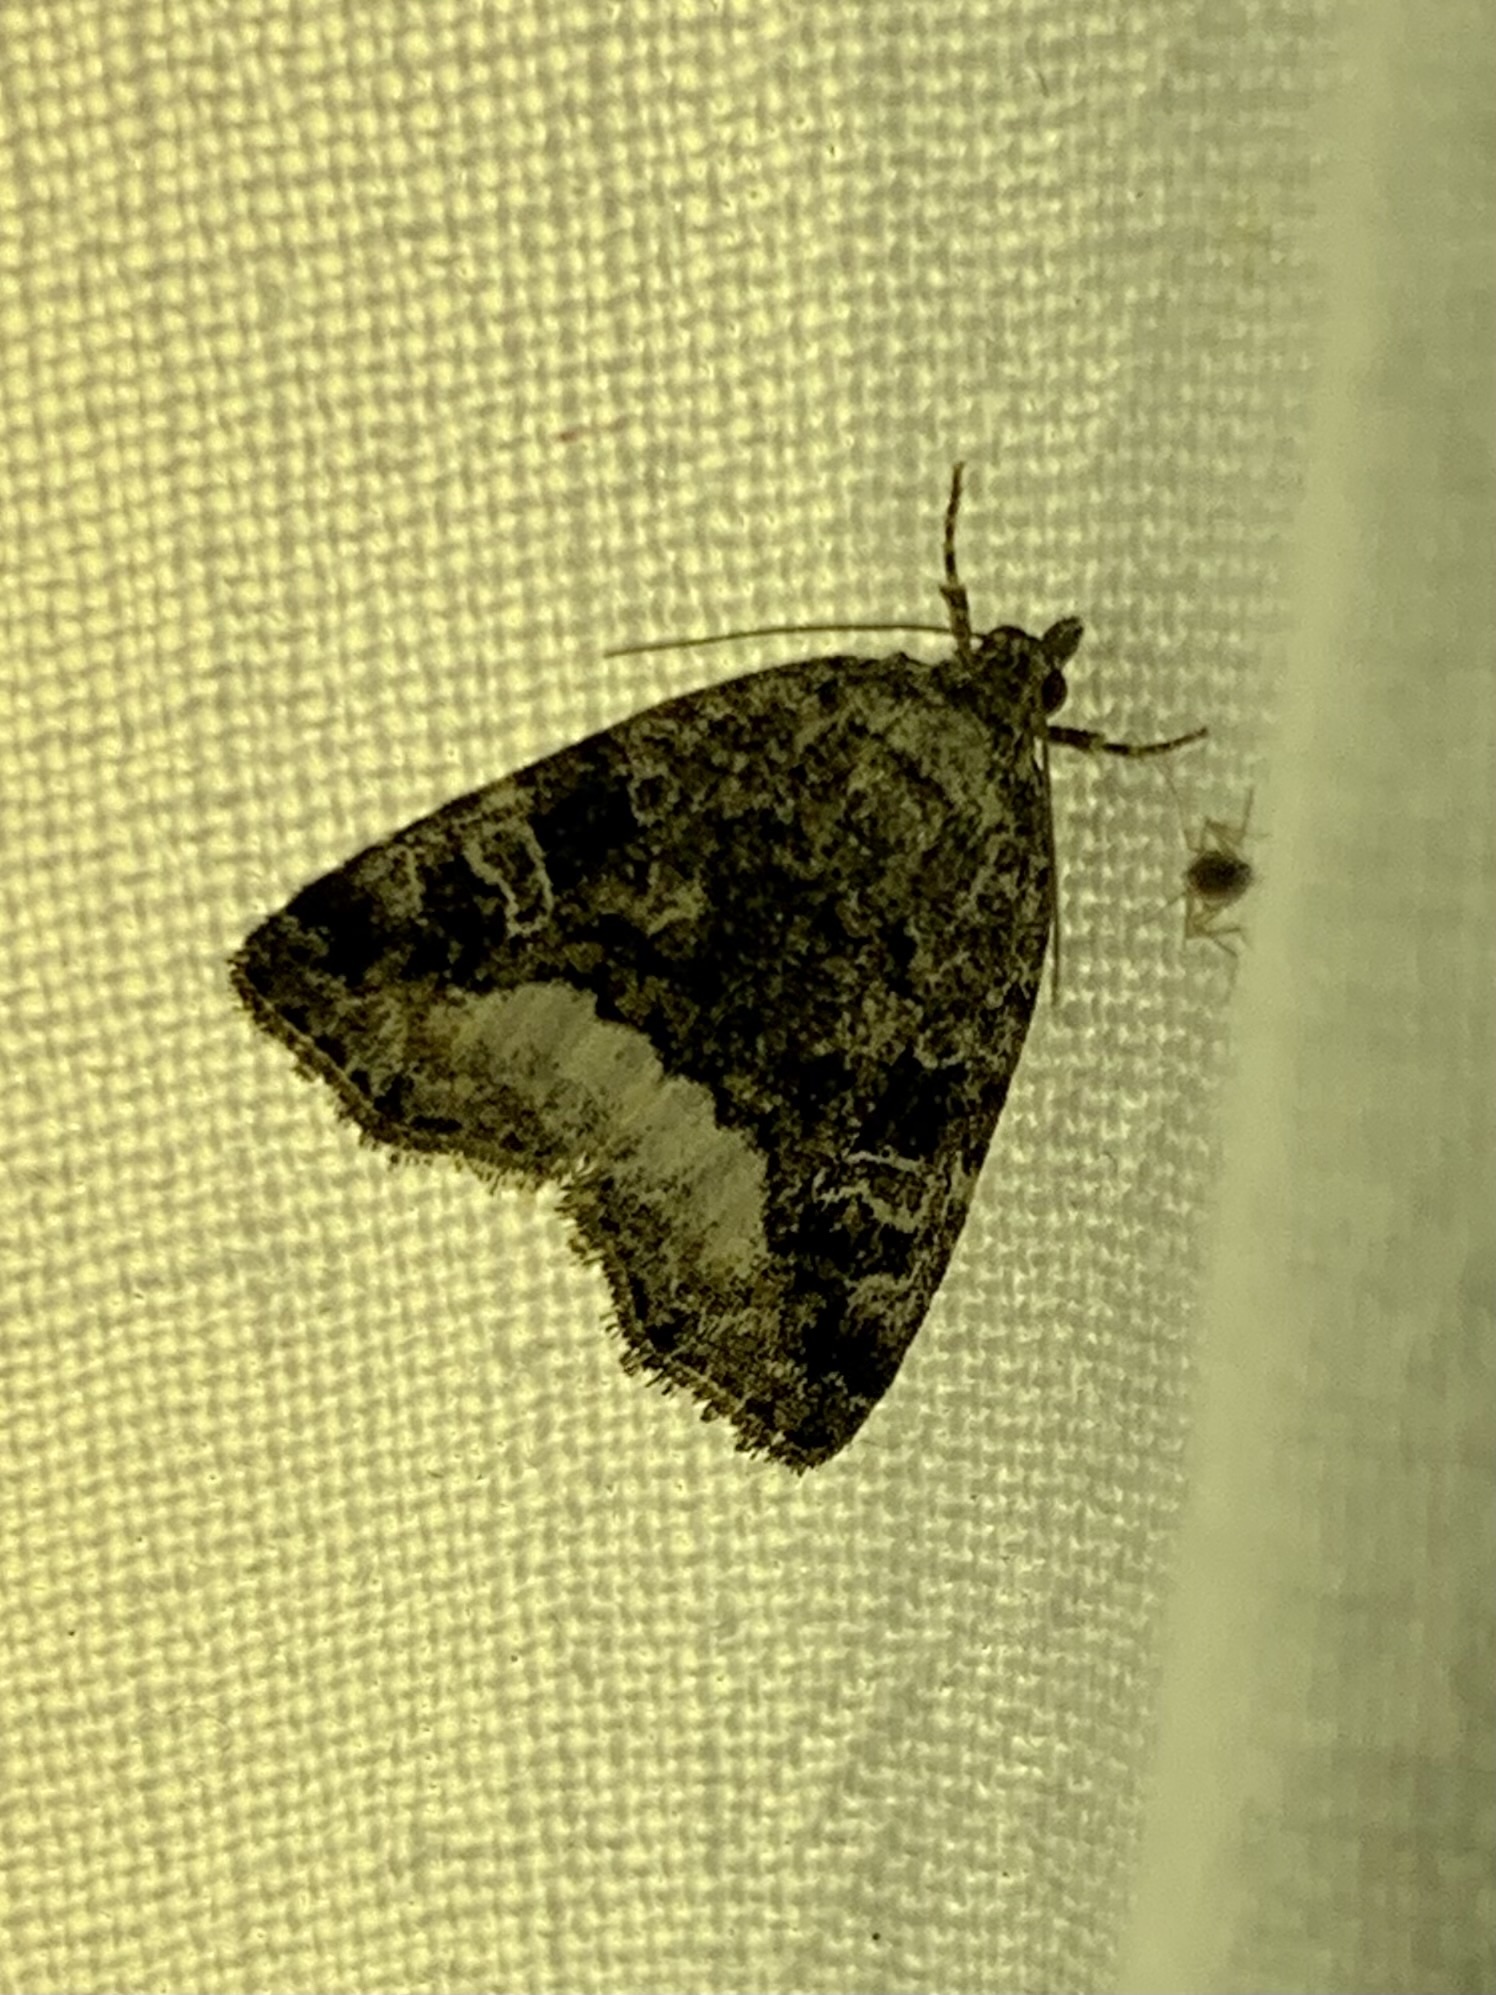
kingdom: Animalia
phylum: Arthropoda
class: Insecta
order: Lepidoptera
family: Noctuidae
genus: Deltote
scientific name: Deltote pygarga
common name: Marbled white spot
